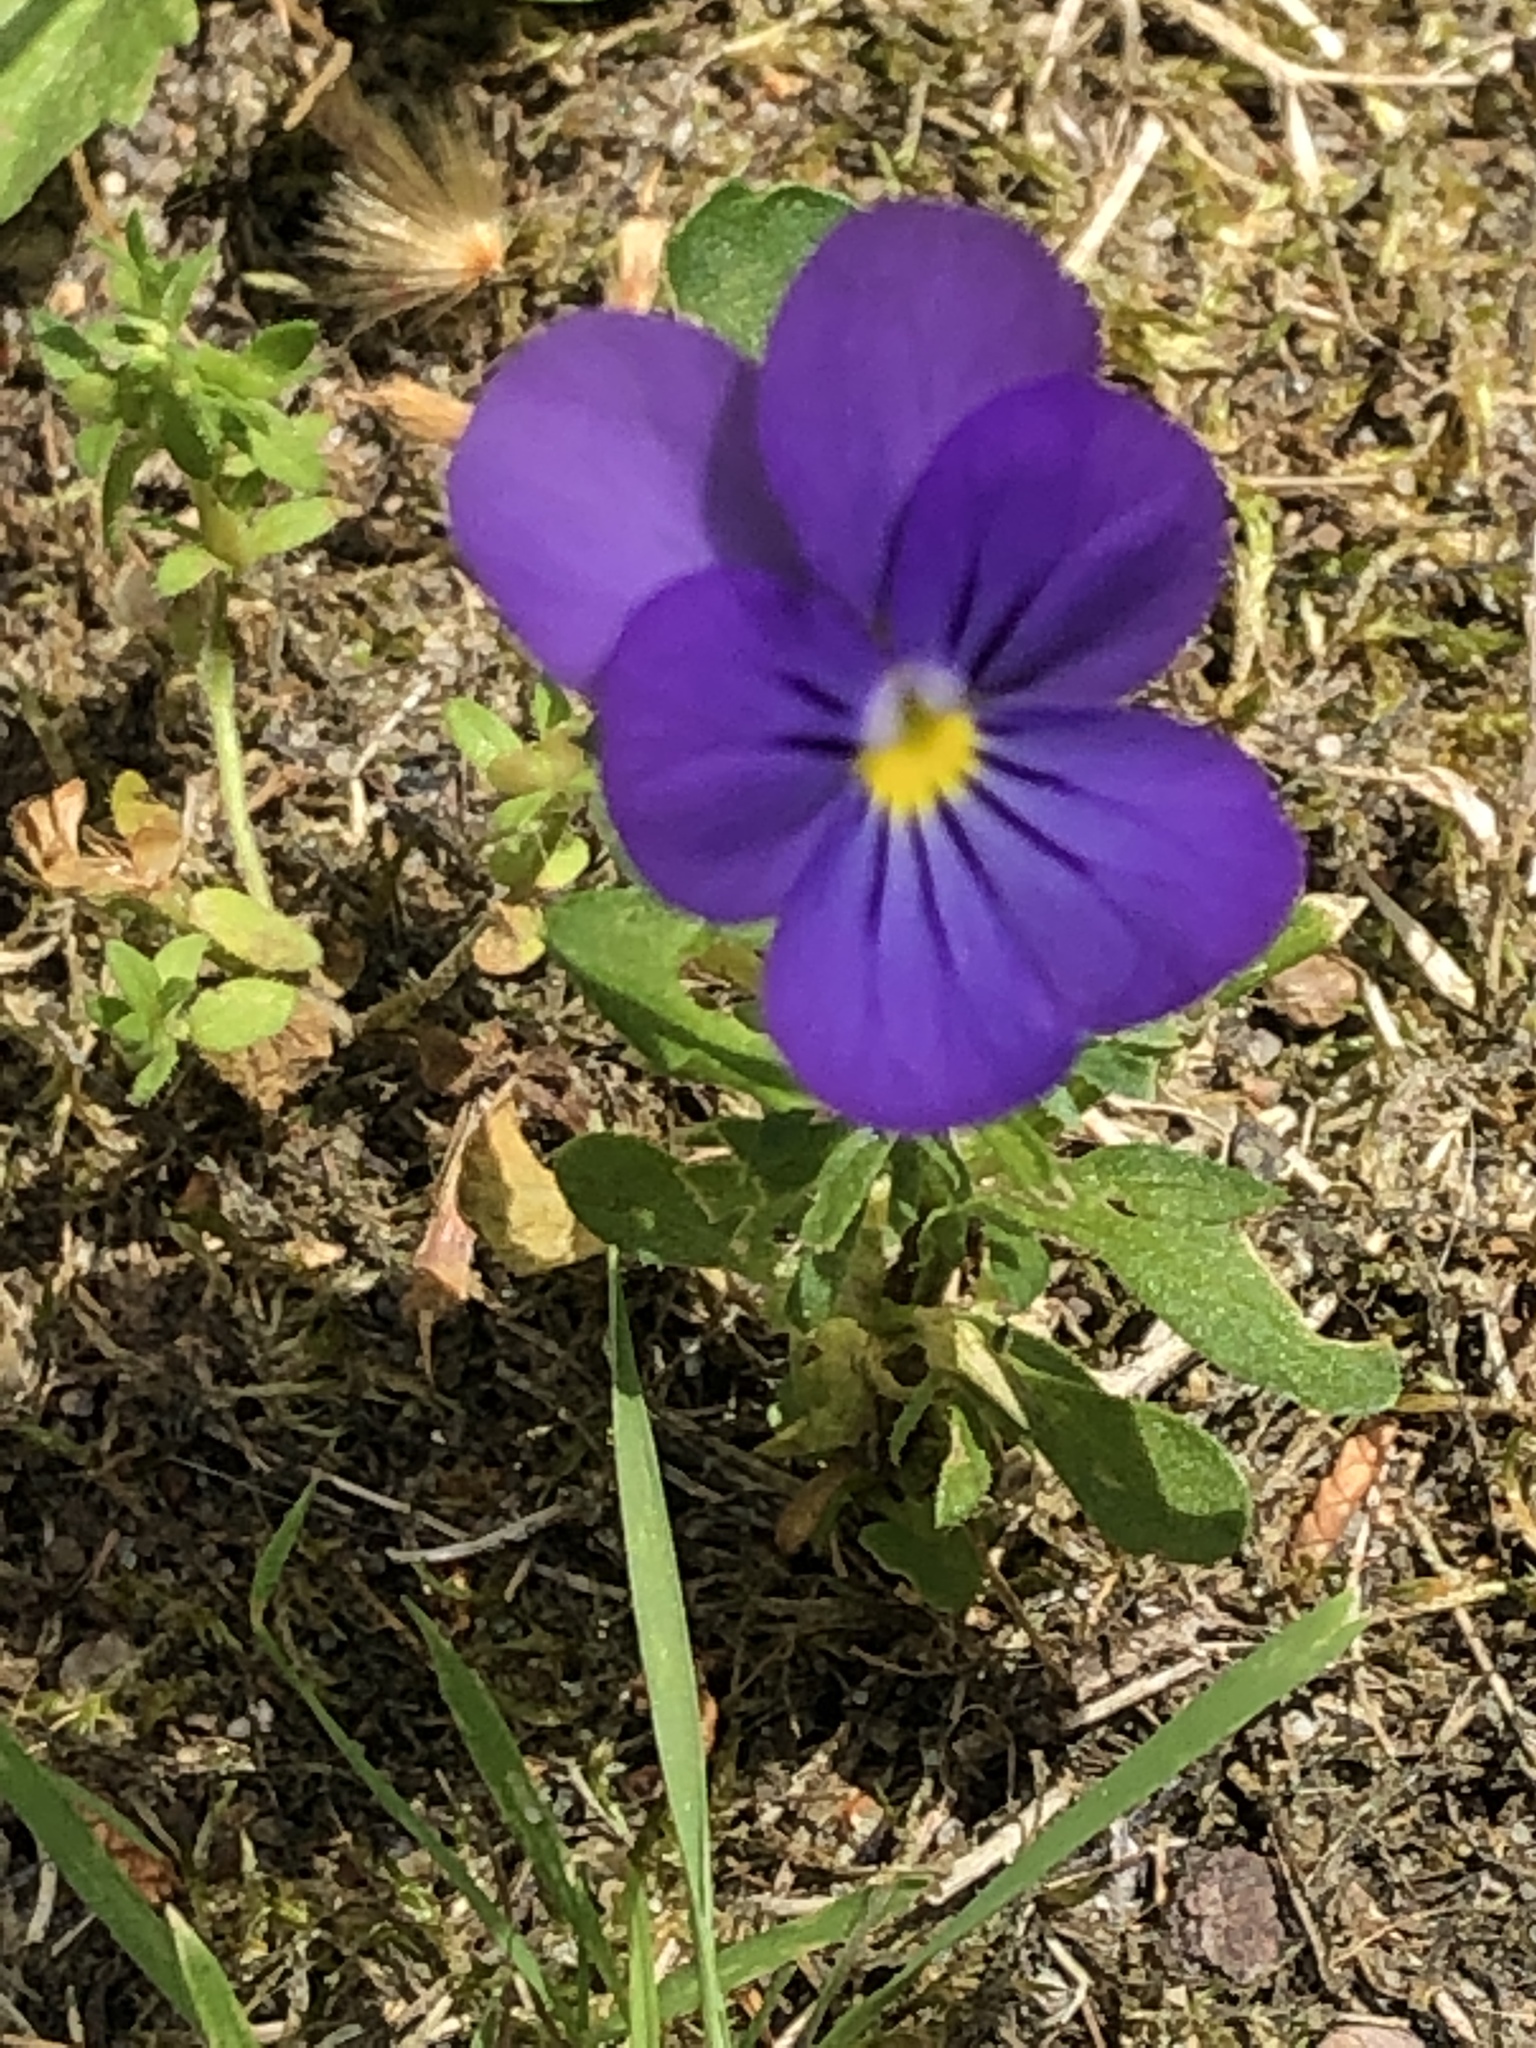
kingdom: Plantae
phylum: Tracheophyta
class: Magnoliopsida
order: Malpighiales
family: Violaceae
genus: Viola
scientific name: Viola
